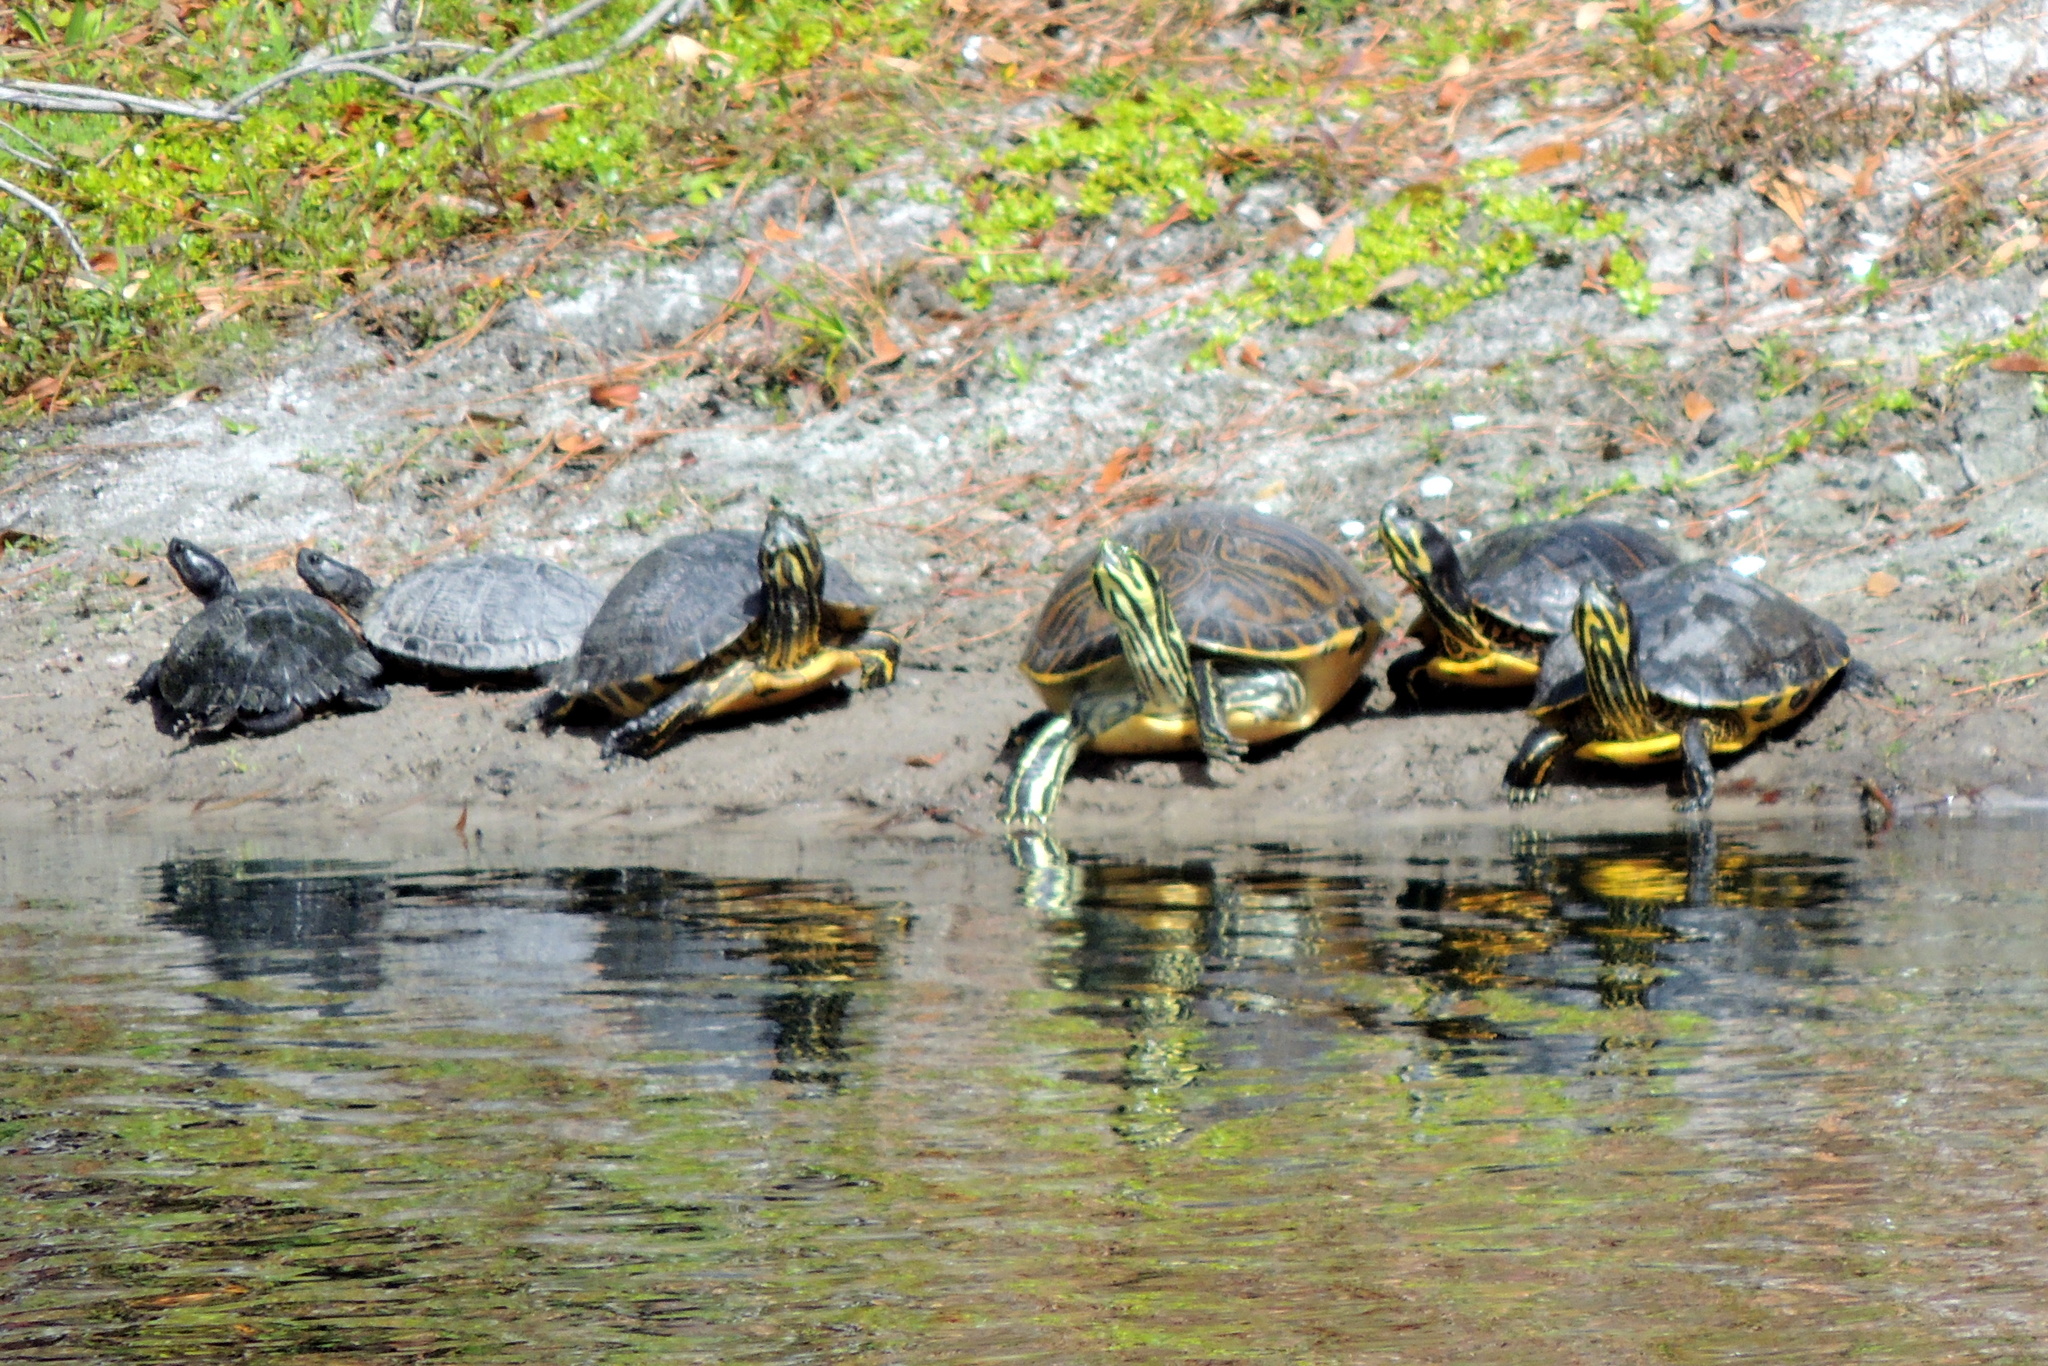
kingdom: Animalia
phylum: Chordata
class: Testudines
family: Emydidae
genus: Trachemys
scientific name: Trachemys scripta
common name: Slider
